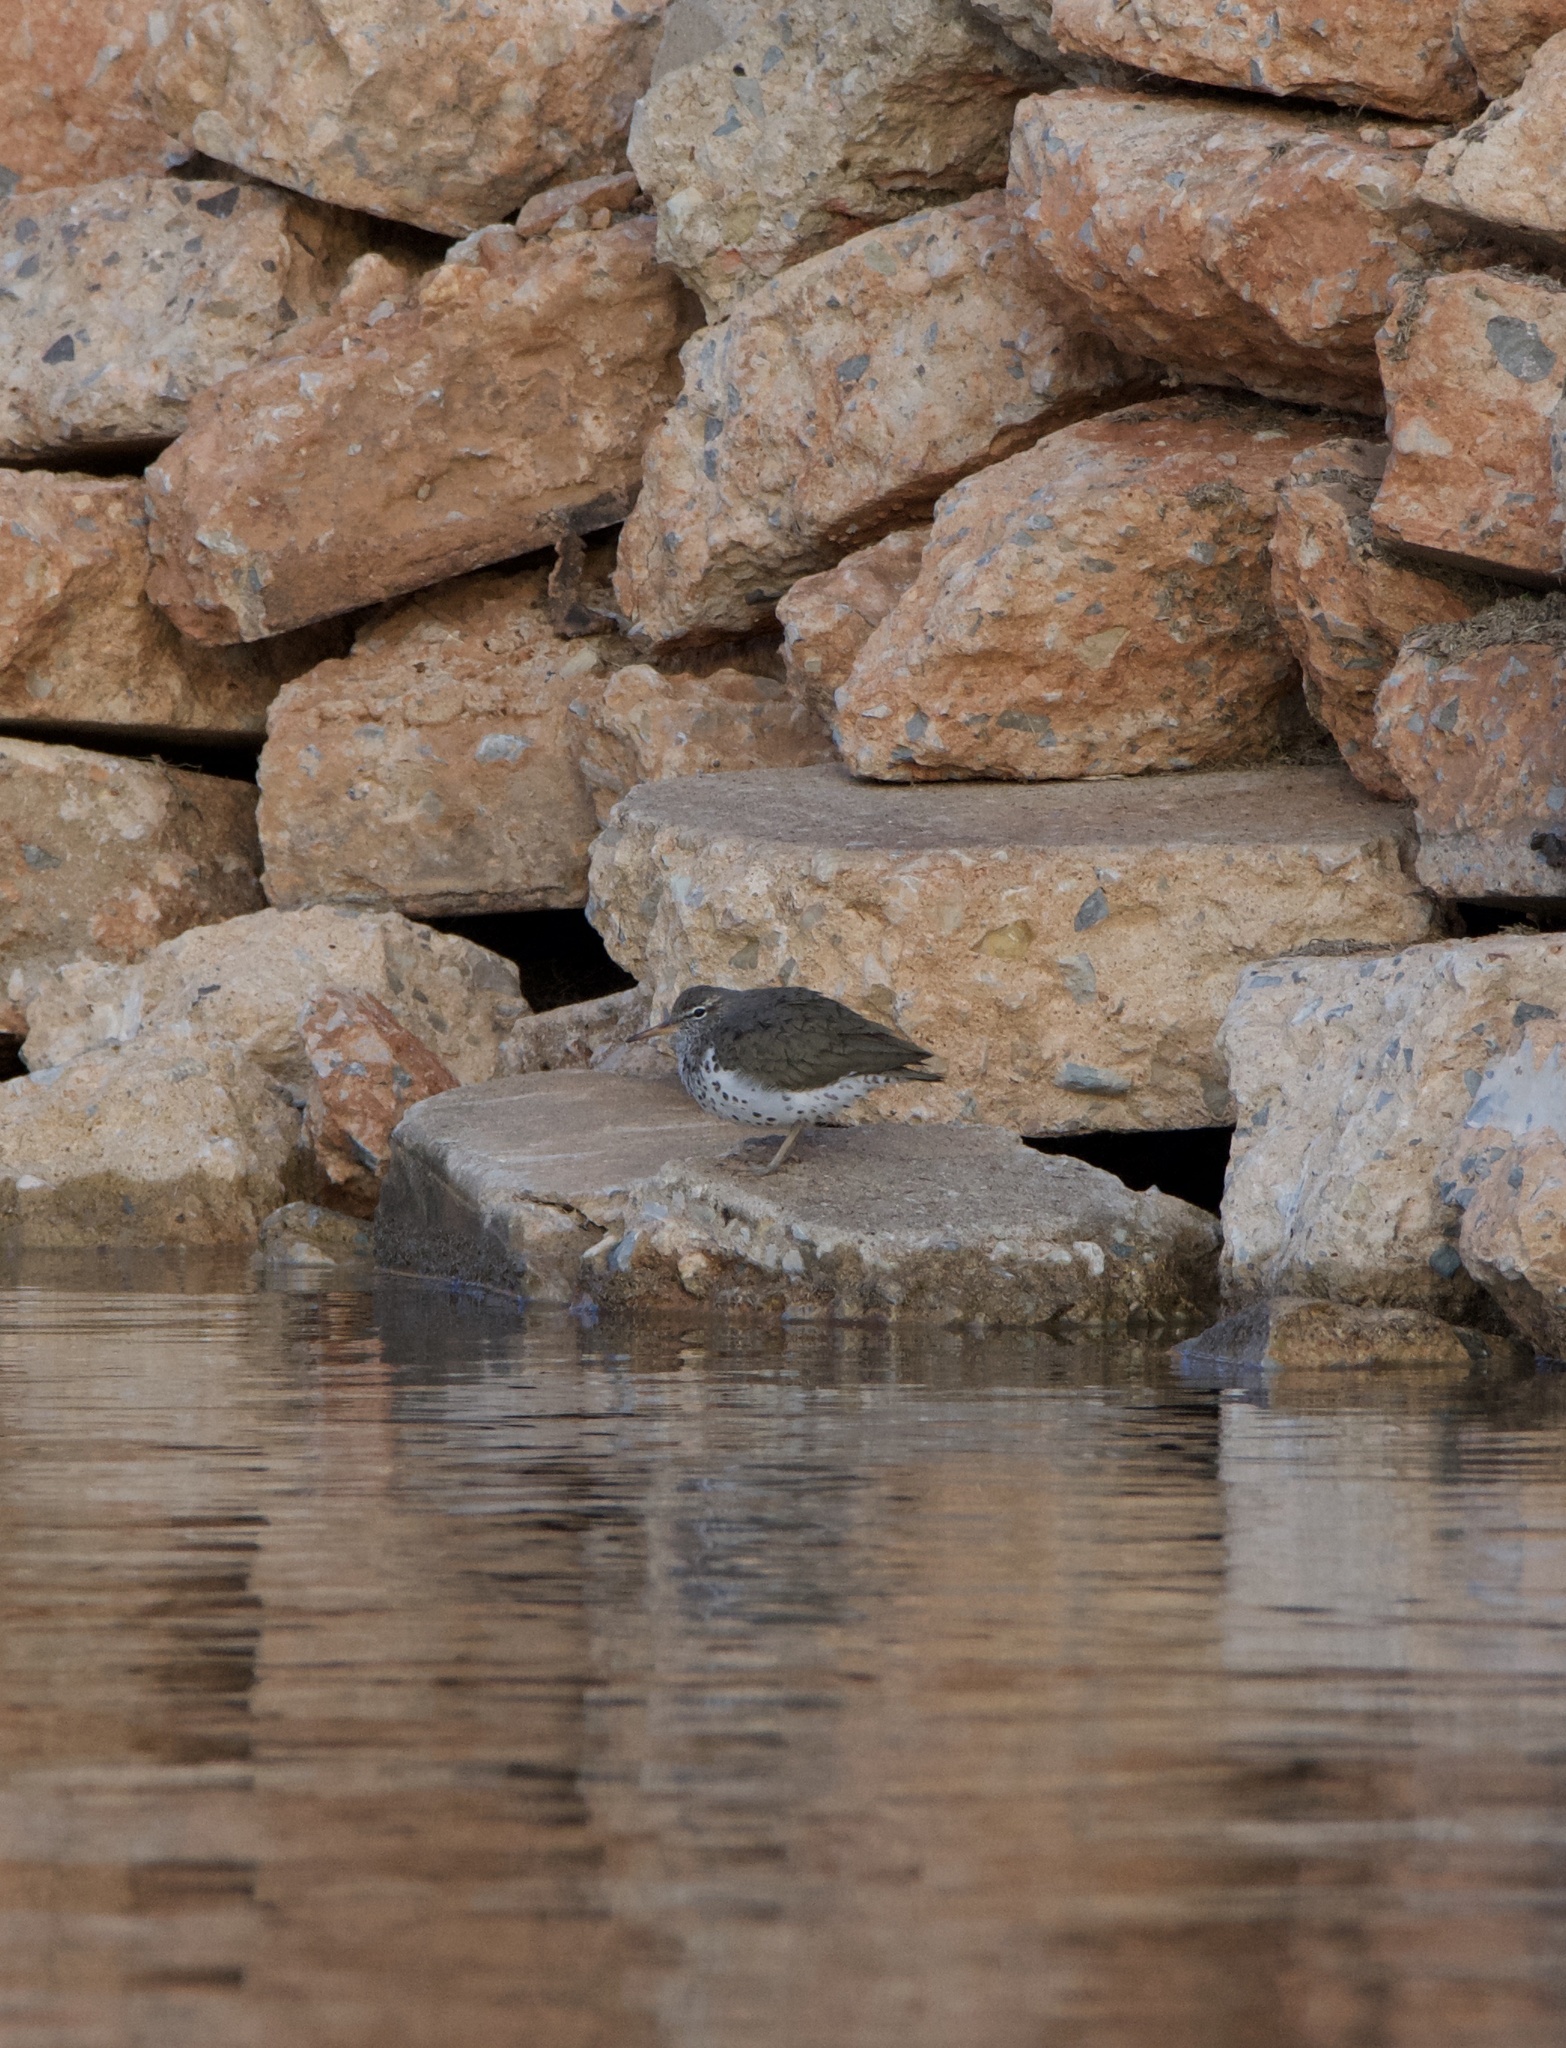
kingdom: Animalia
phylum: Chordata
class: Aves
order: Charadriiformes
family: Scolopacidae
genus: Actitis
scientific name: Actitis macularius
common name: Spotted sandpiper
